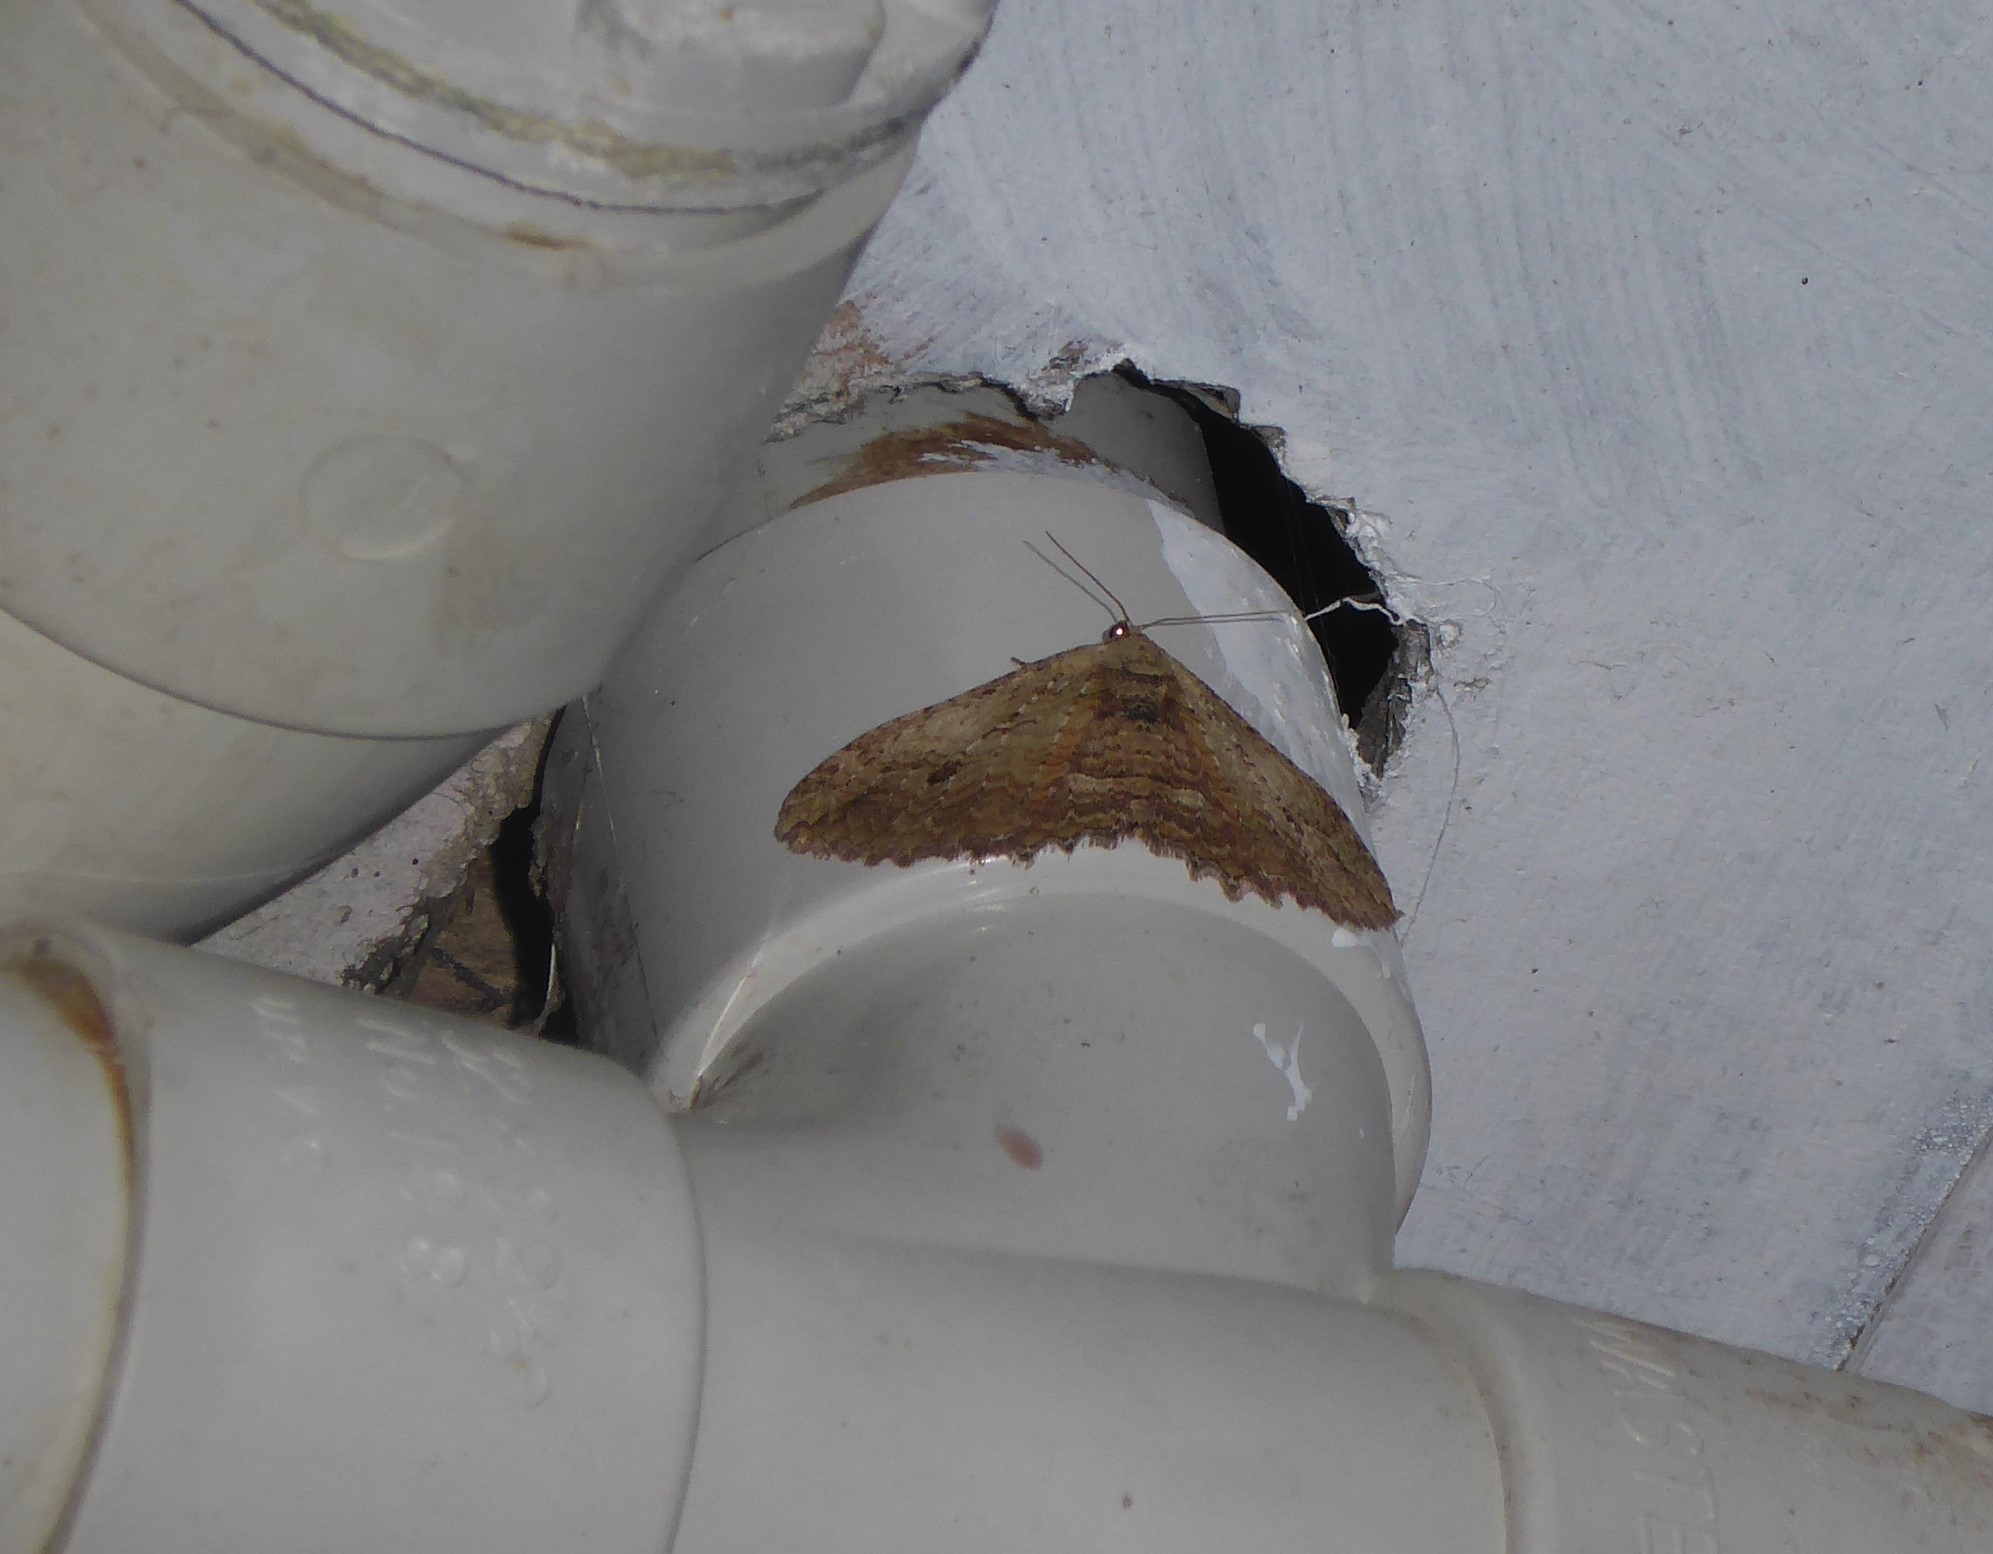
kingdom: Animalia
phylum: Arthropoda
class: Insecta
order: Lepidoptera
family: Geometridae
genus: Austrocidaria
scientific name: Austrocidaria bipartita
